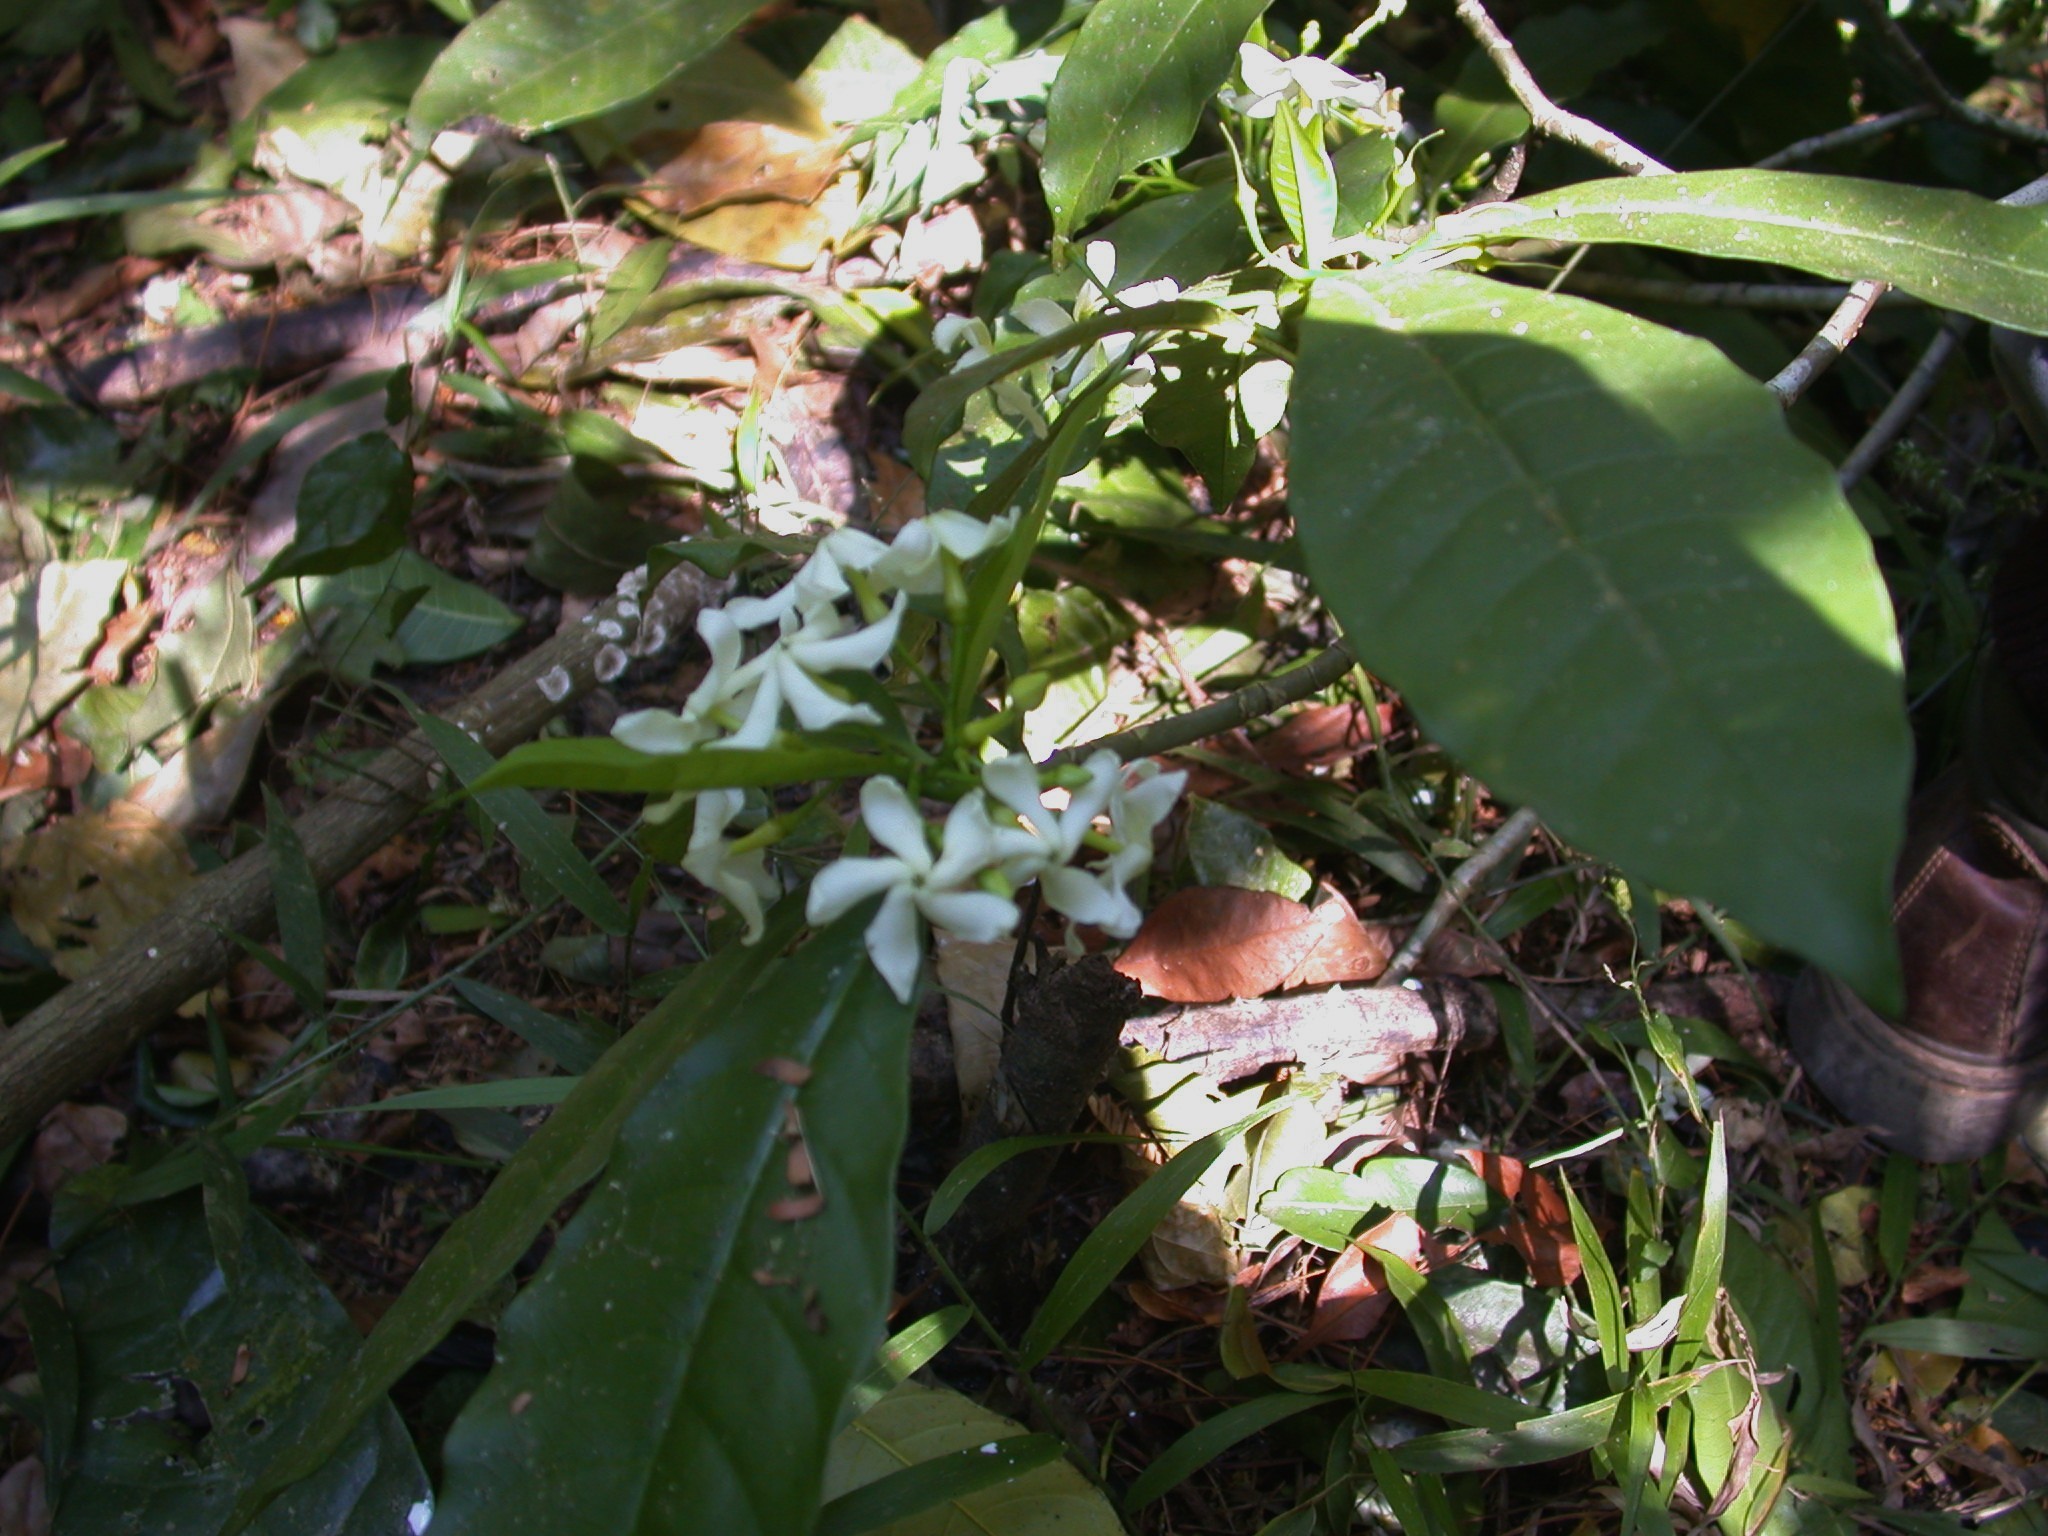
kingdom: Plantae
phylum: Tracheophyta
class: Magnoliopsida
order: Gentianales
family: Apocynaceae
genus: Tabernaemontana
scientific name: Tabernaemontana alba
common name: White milkwood
